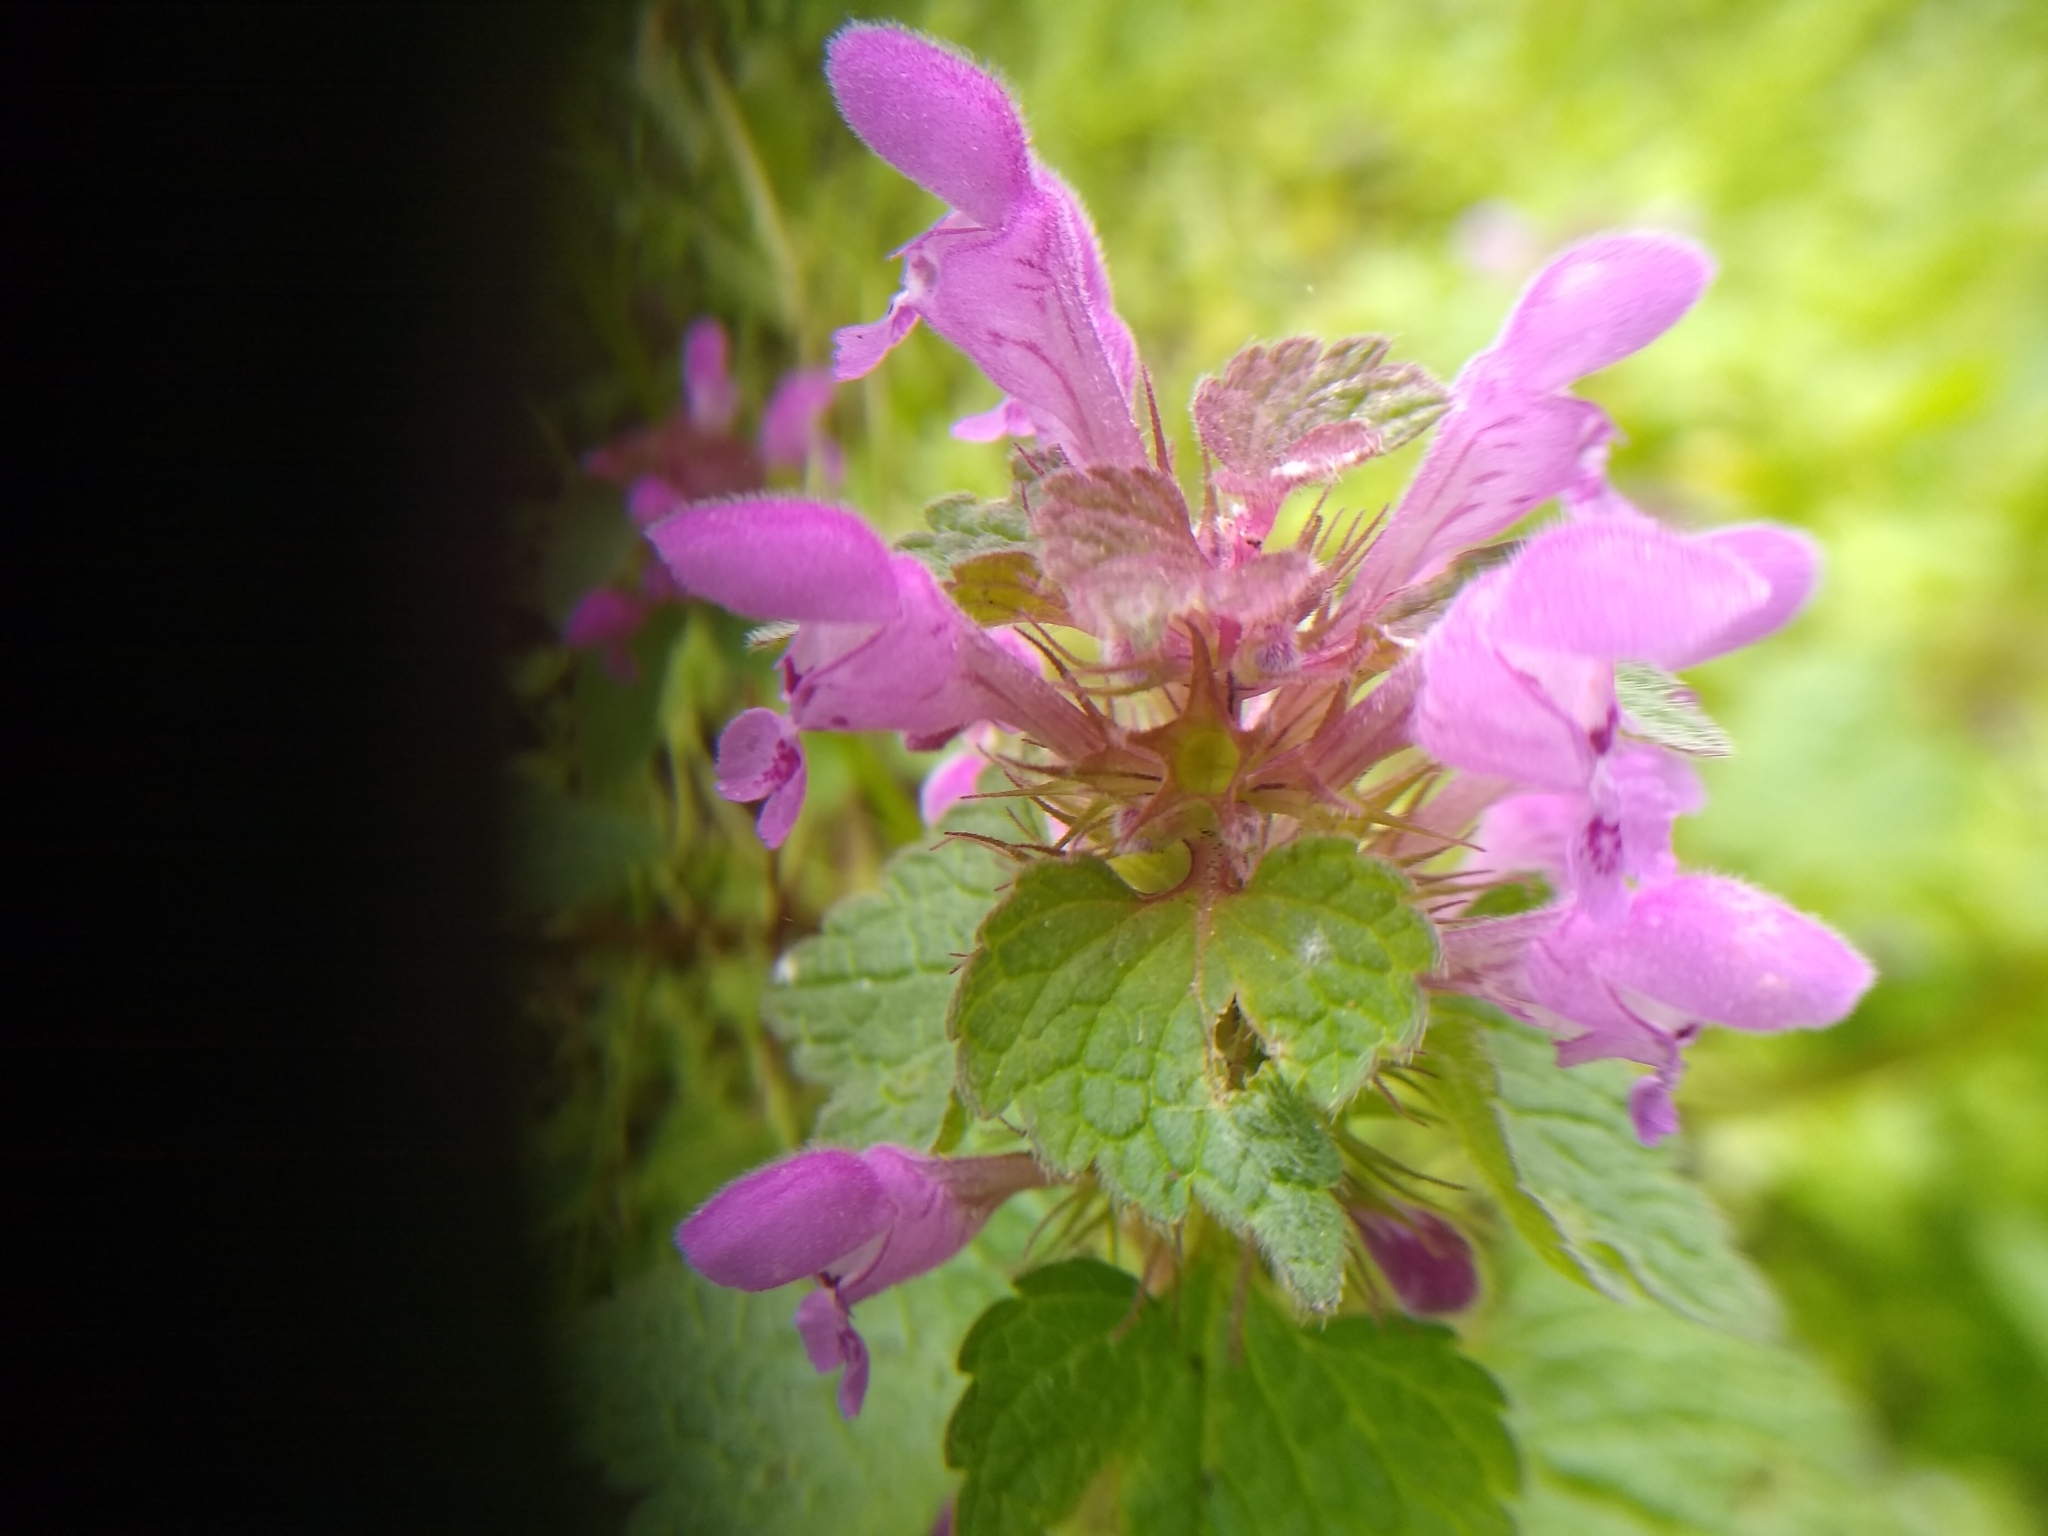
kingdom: Plantae
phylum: Tracheophyta
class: Magnoliopsida
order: Lamiales
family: Lamiaceae
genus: Lamium
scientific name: Lamium purpureum
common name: Red dead-nettle
